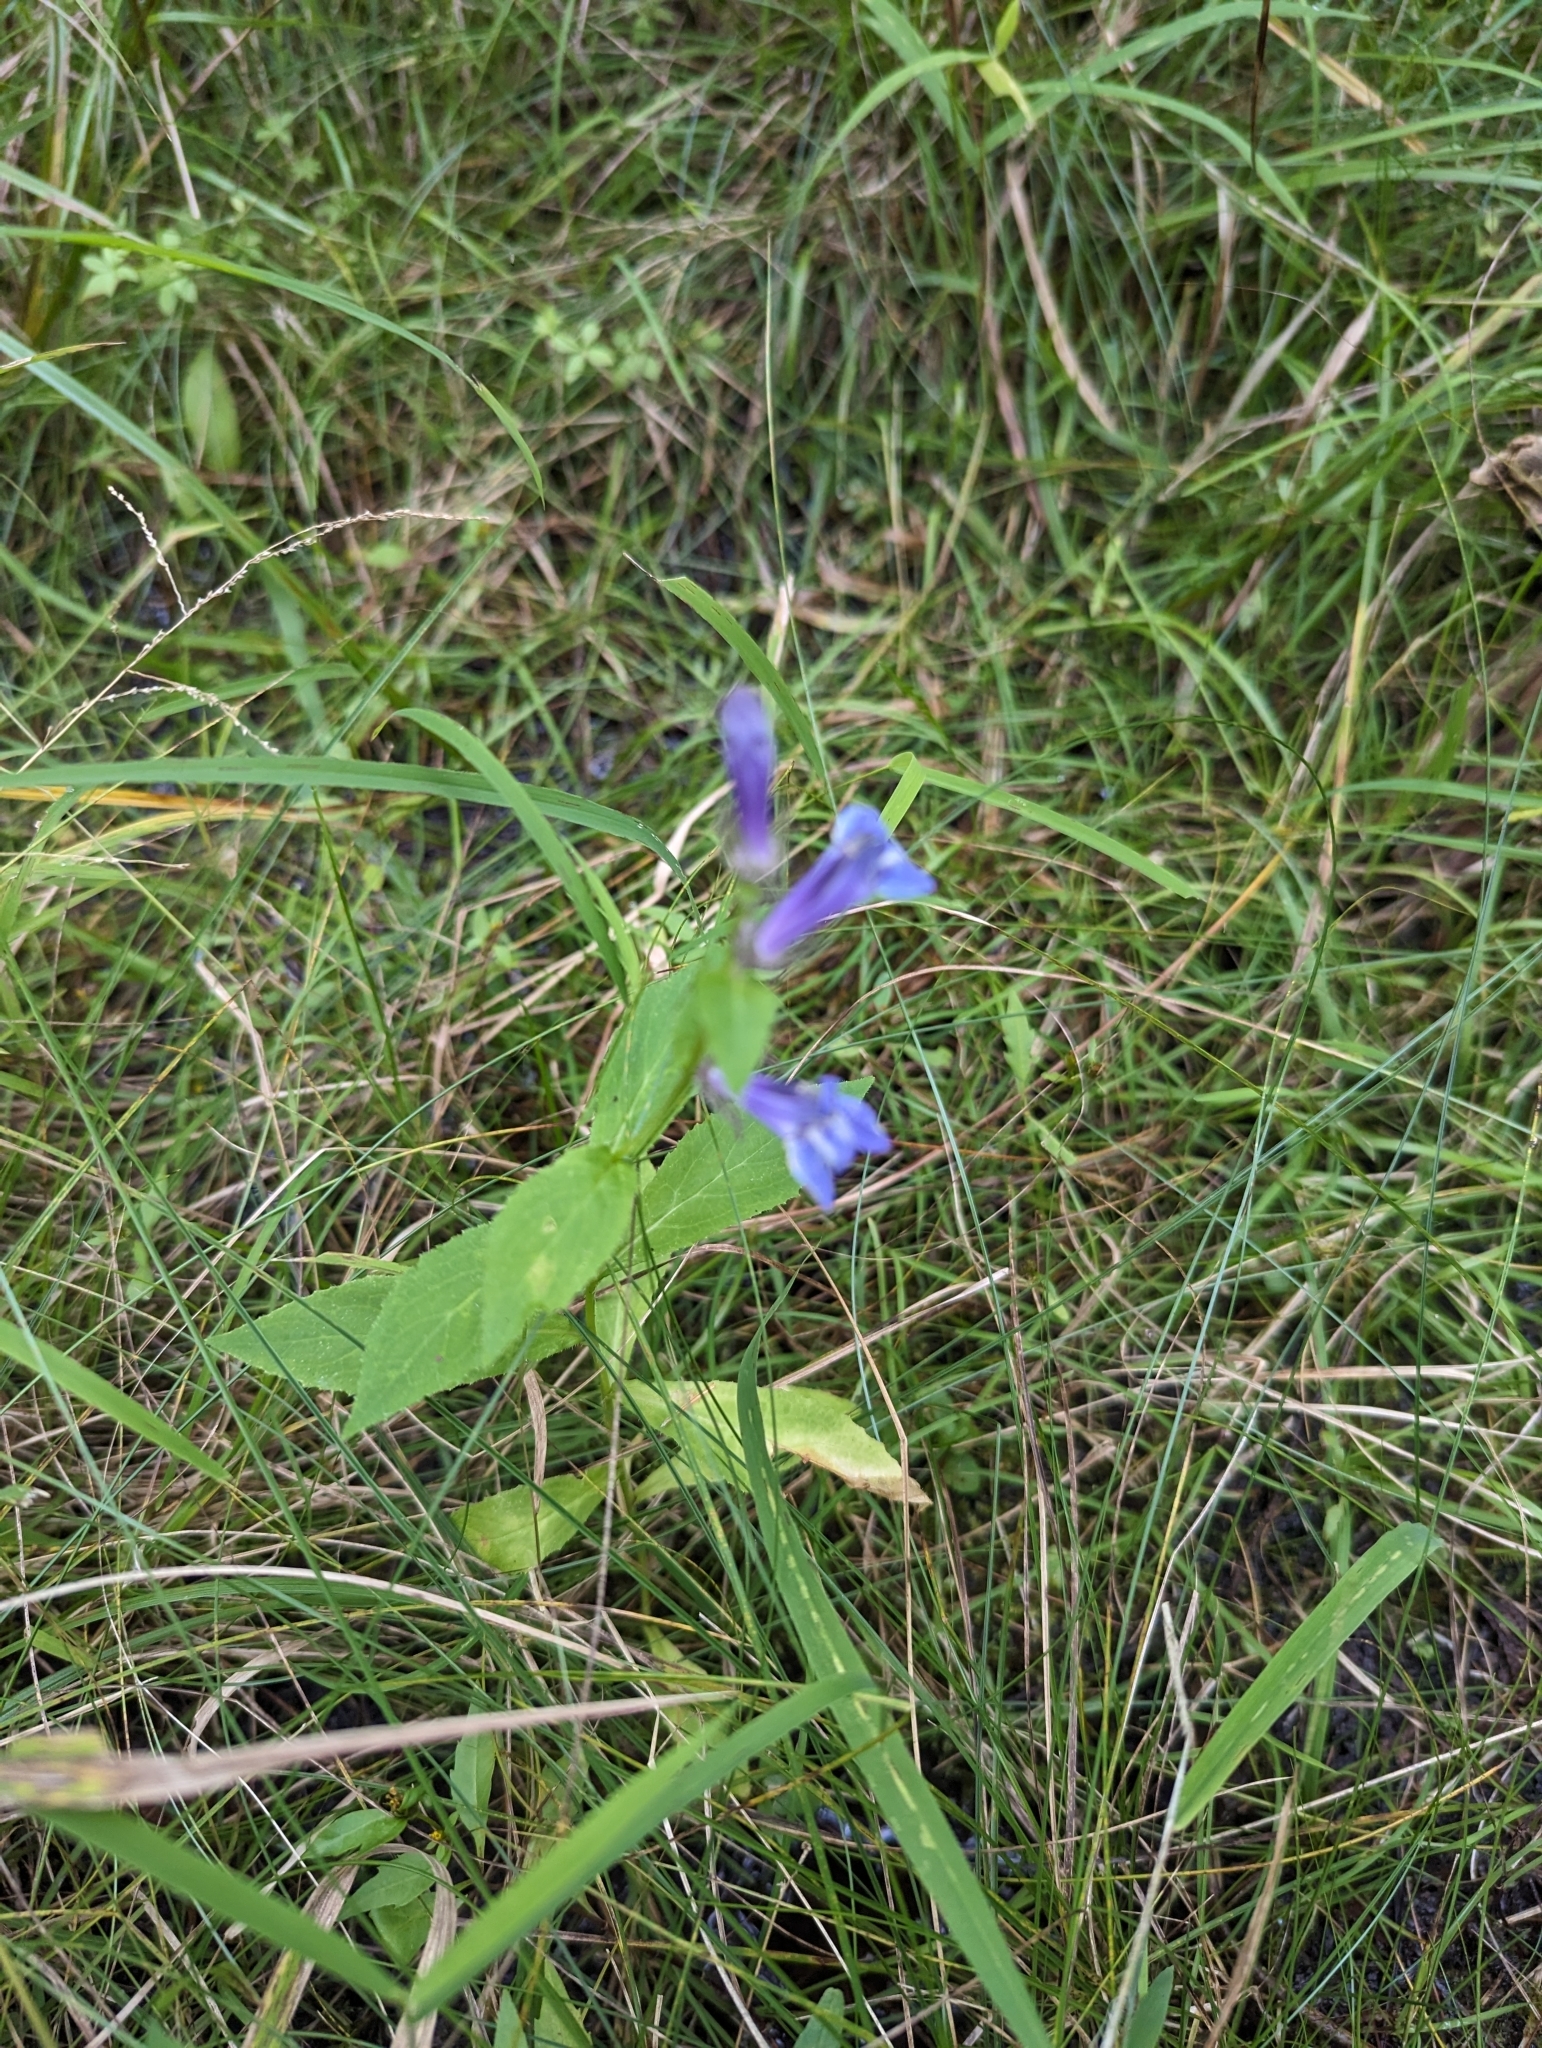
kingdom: Plantae
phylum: Tracheophyta
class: Magnoliopsida
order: Asterales
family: Campanulaceae
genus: Lobelia
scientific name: Lobelia siphilitica
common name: Great lobelia
